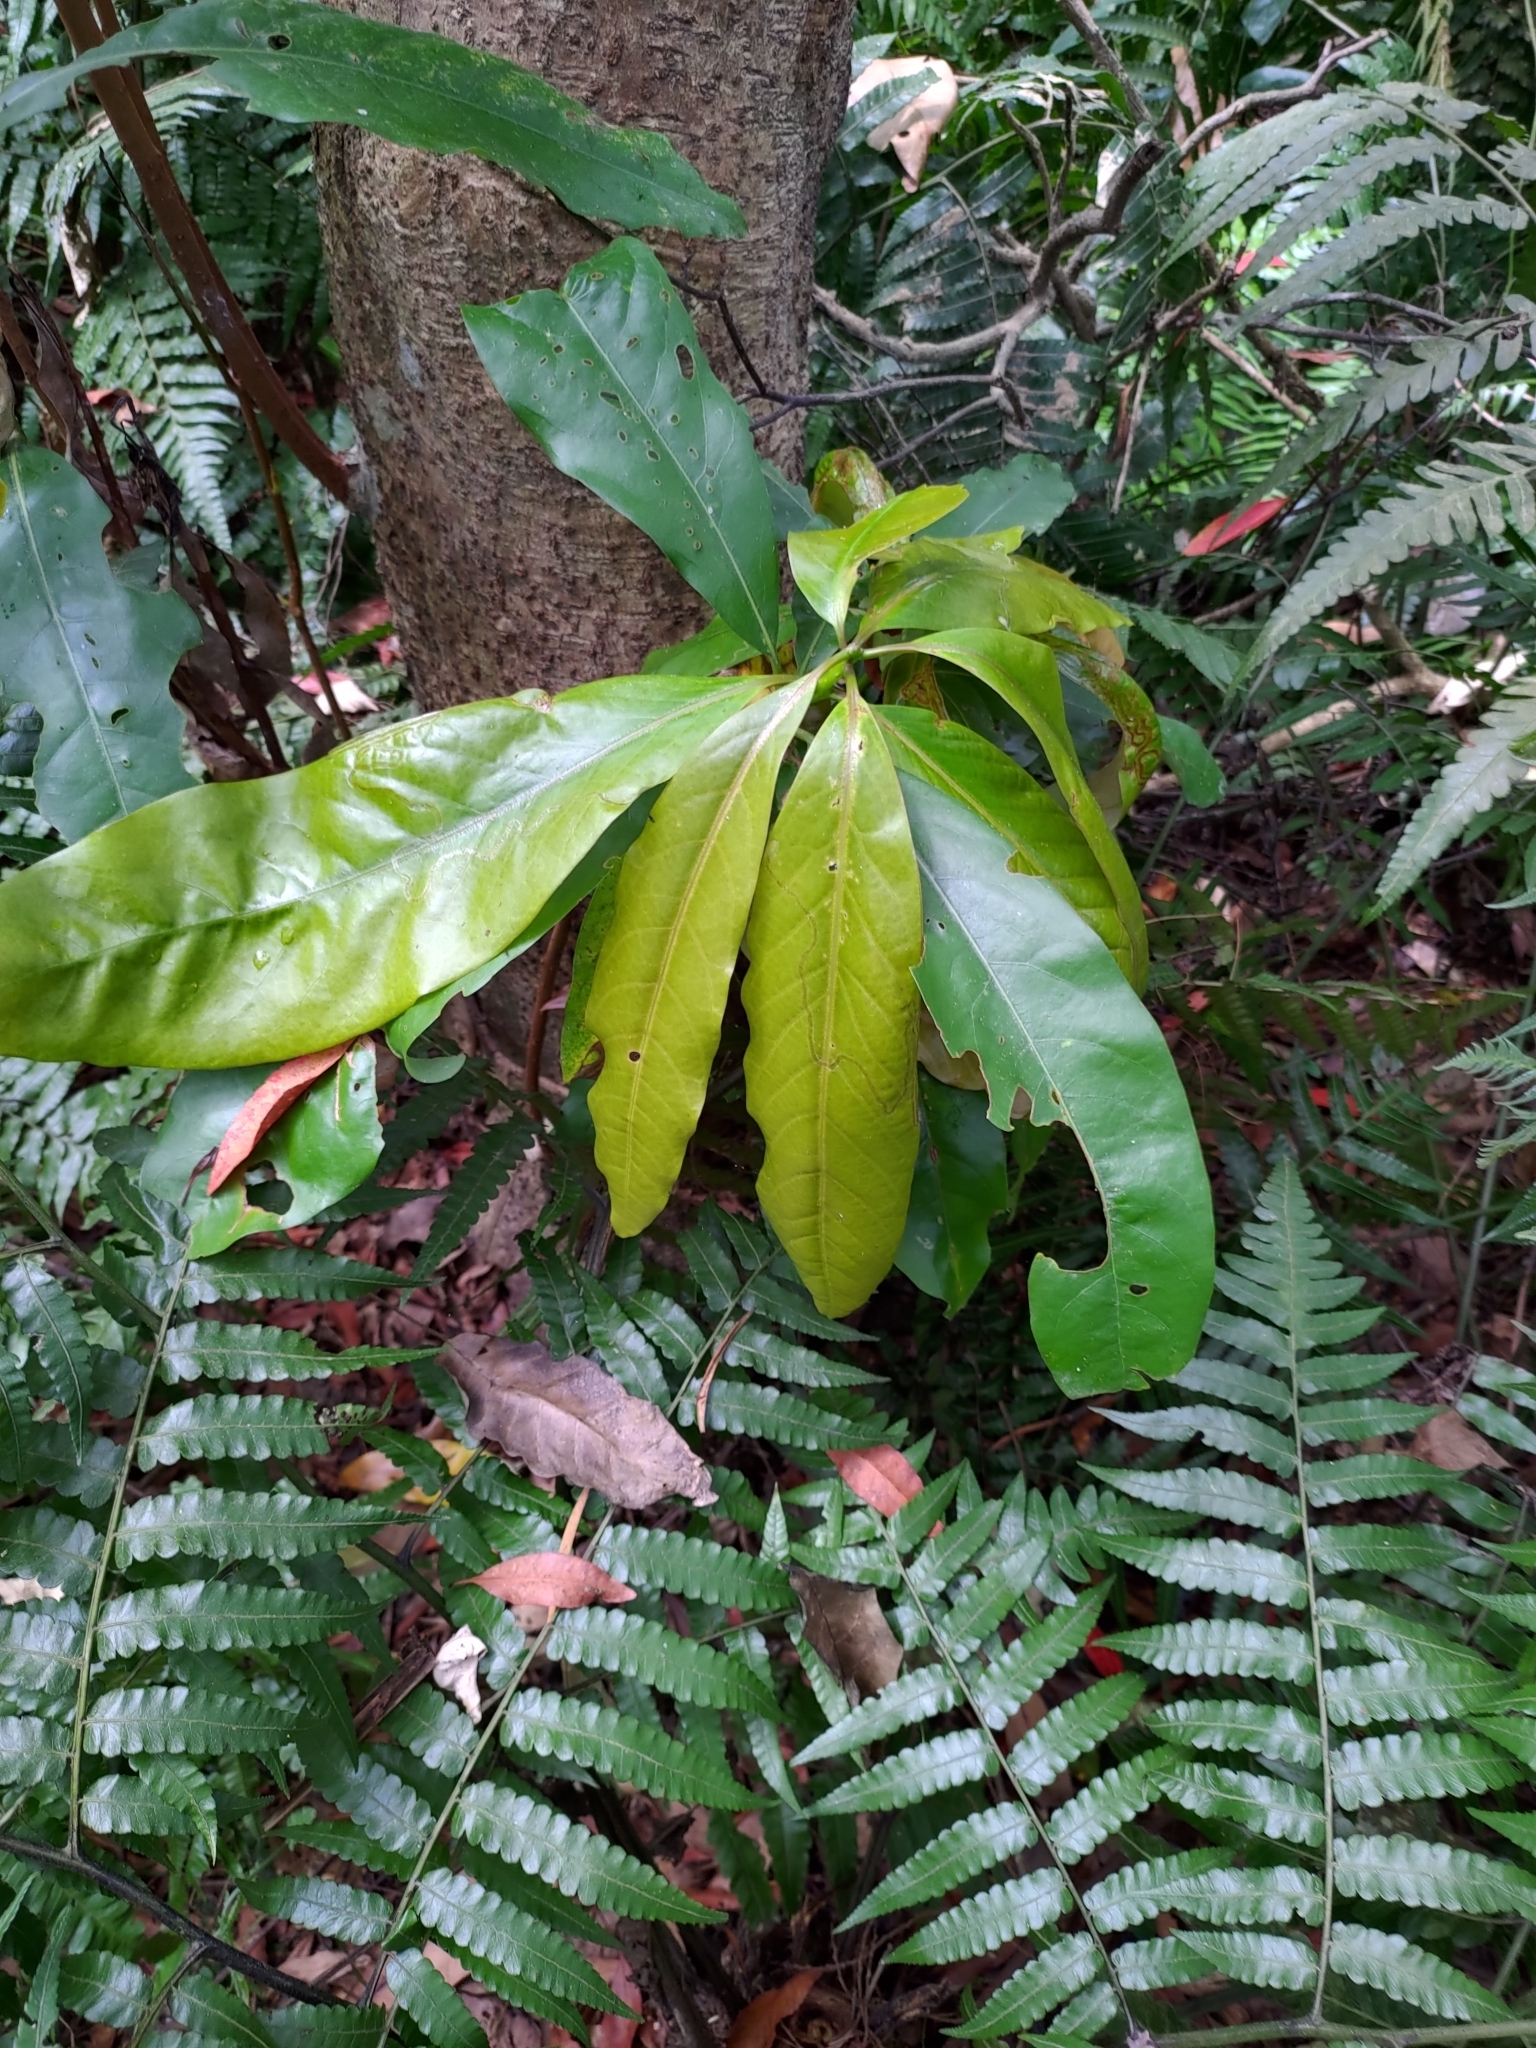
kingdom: Plantae
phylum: Tracheophyta
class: Magnoliopsida
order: Laurales
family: Lauraceae
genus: Machilus
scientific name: Machilus japonica
